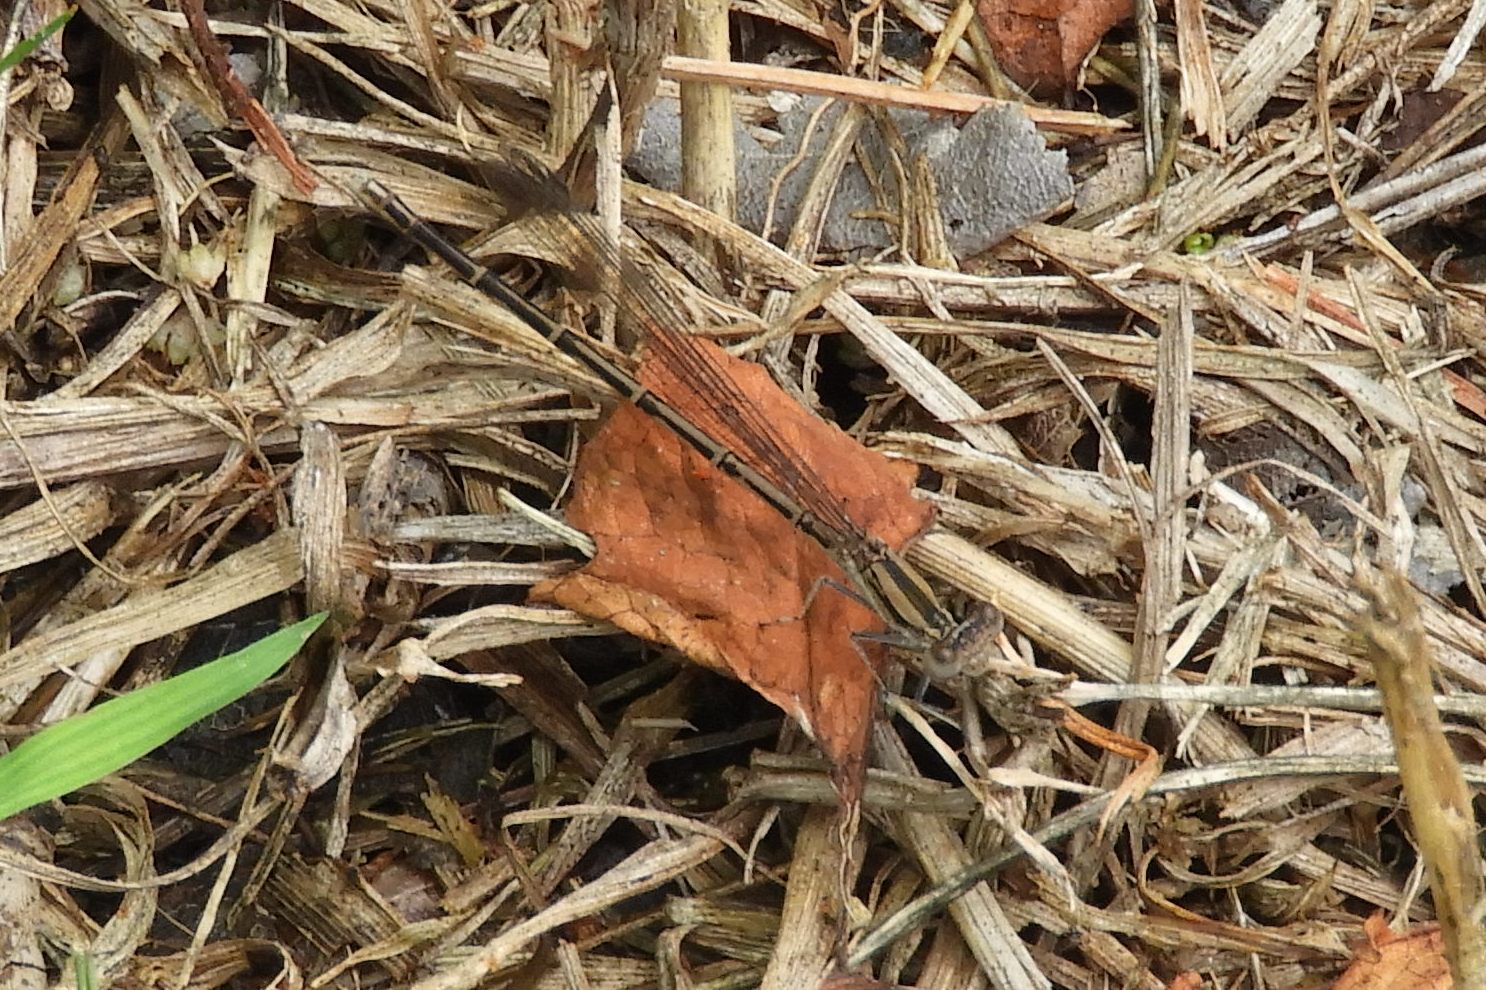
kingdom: Animalia
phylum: Arthropoda
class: Insecta
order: Odonata
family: Coenagrionidae
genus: Argia
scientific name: Argia fumipennis
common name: Variable dancer
